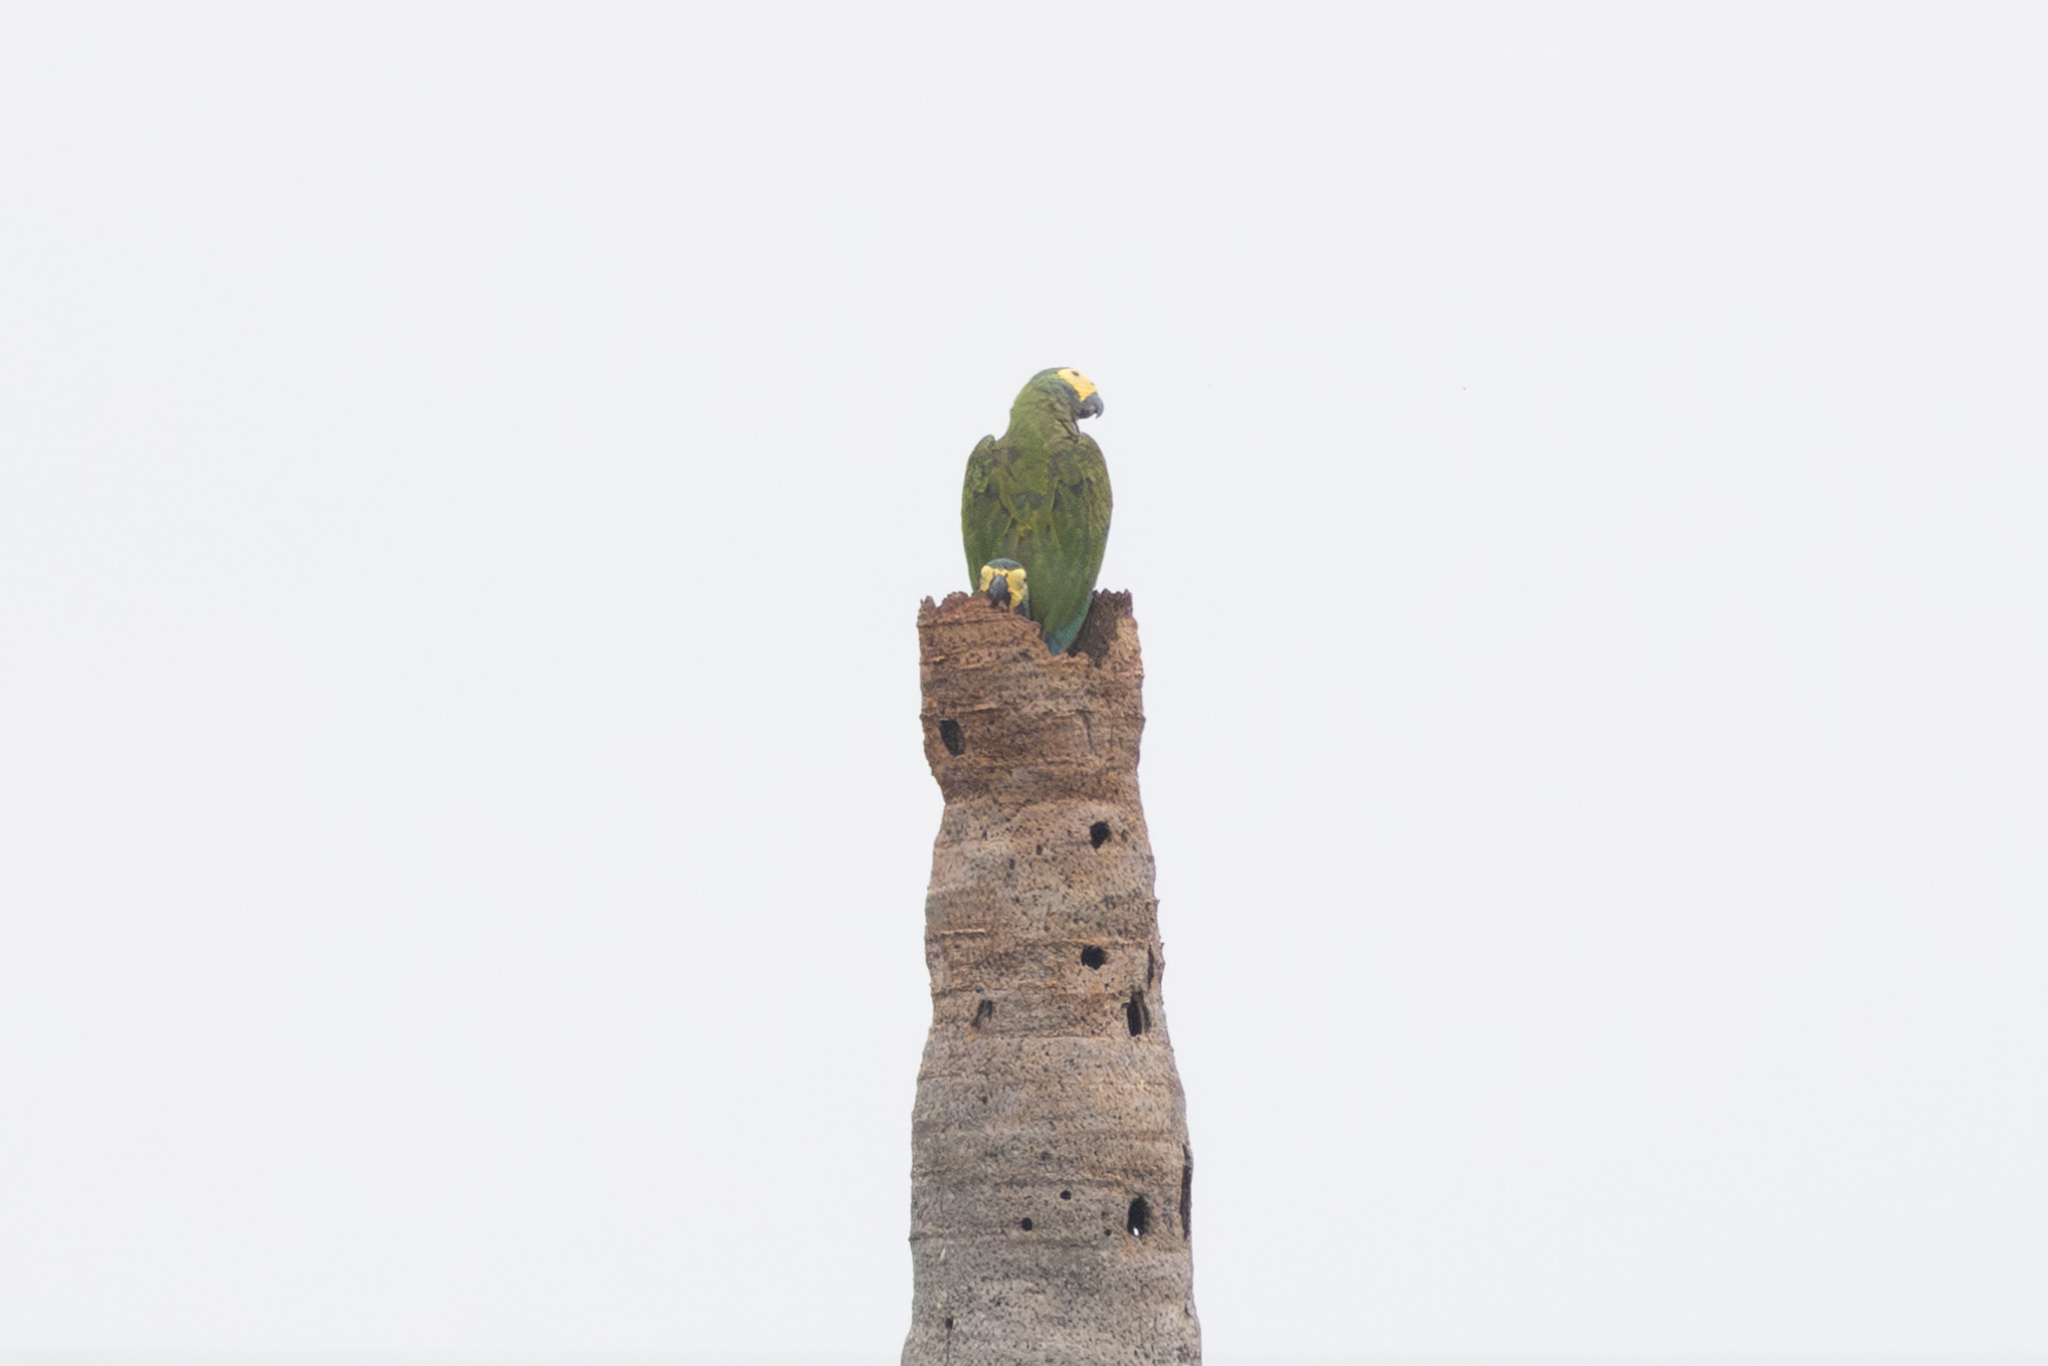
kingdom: Animalia
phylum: Chordata
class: Aves
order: Psittaciformes
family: Psittacidae
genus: Orthopsittaca
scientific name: Orthopsittaca manilata
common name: Red-bellied macaw
